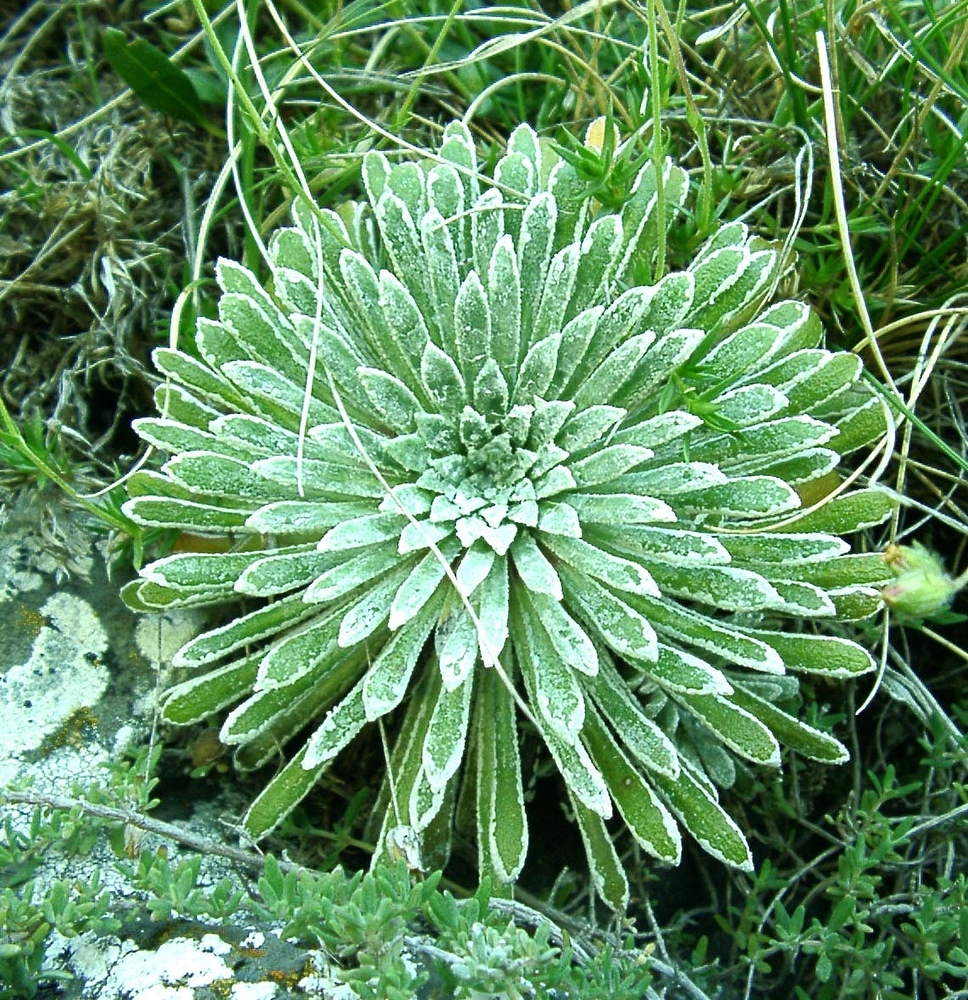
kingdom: Plantae
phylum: Tracheophyta
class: Magnoliopsida
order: Saxifragales
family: Saxifragaceae
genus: Saxifraga
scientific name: Saxifraga longifolia
